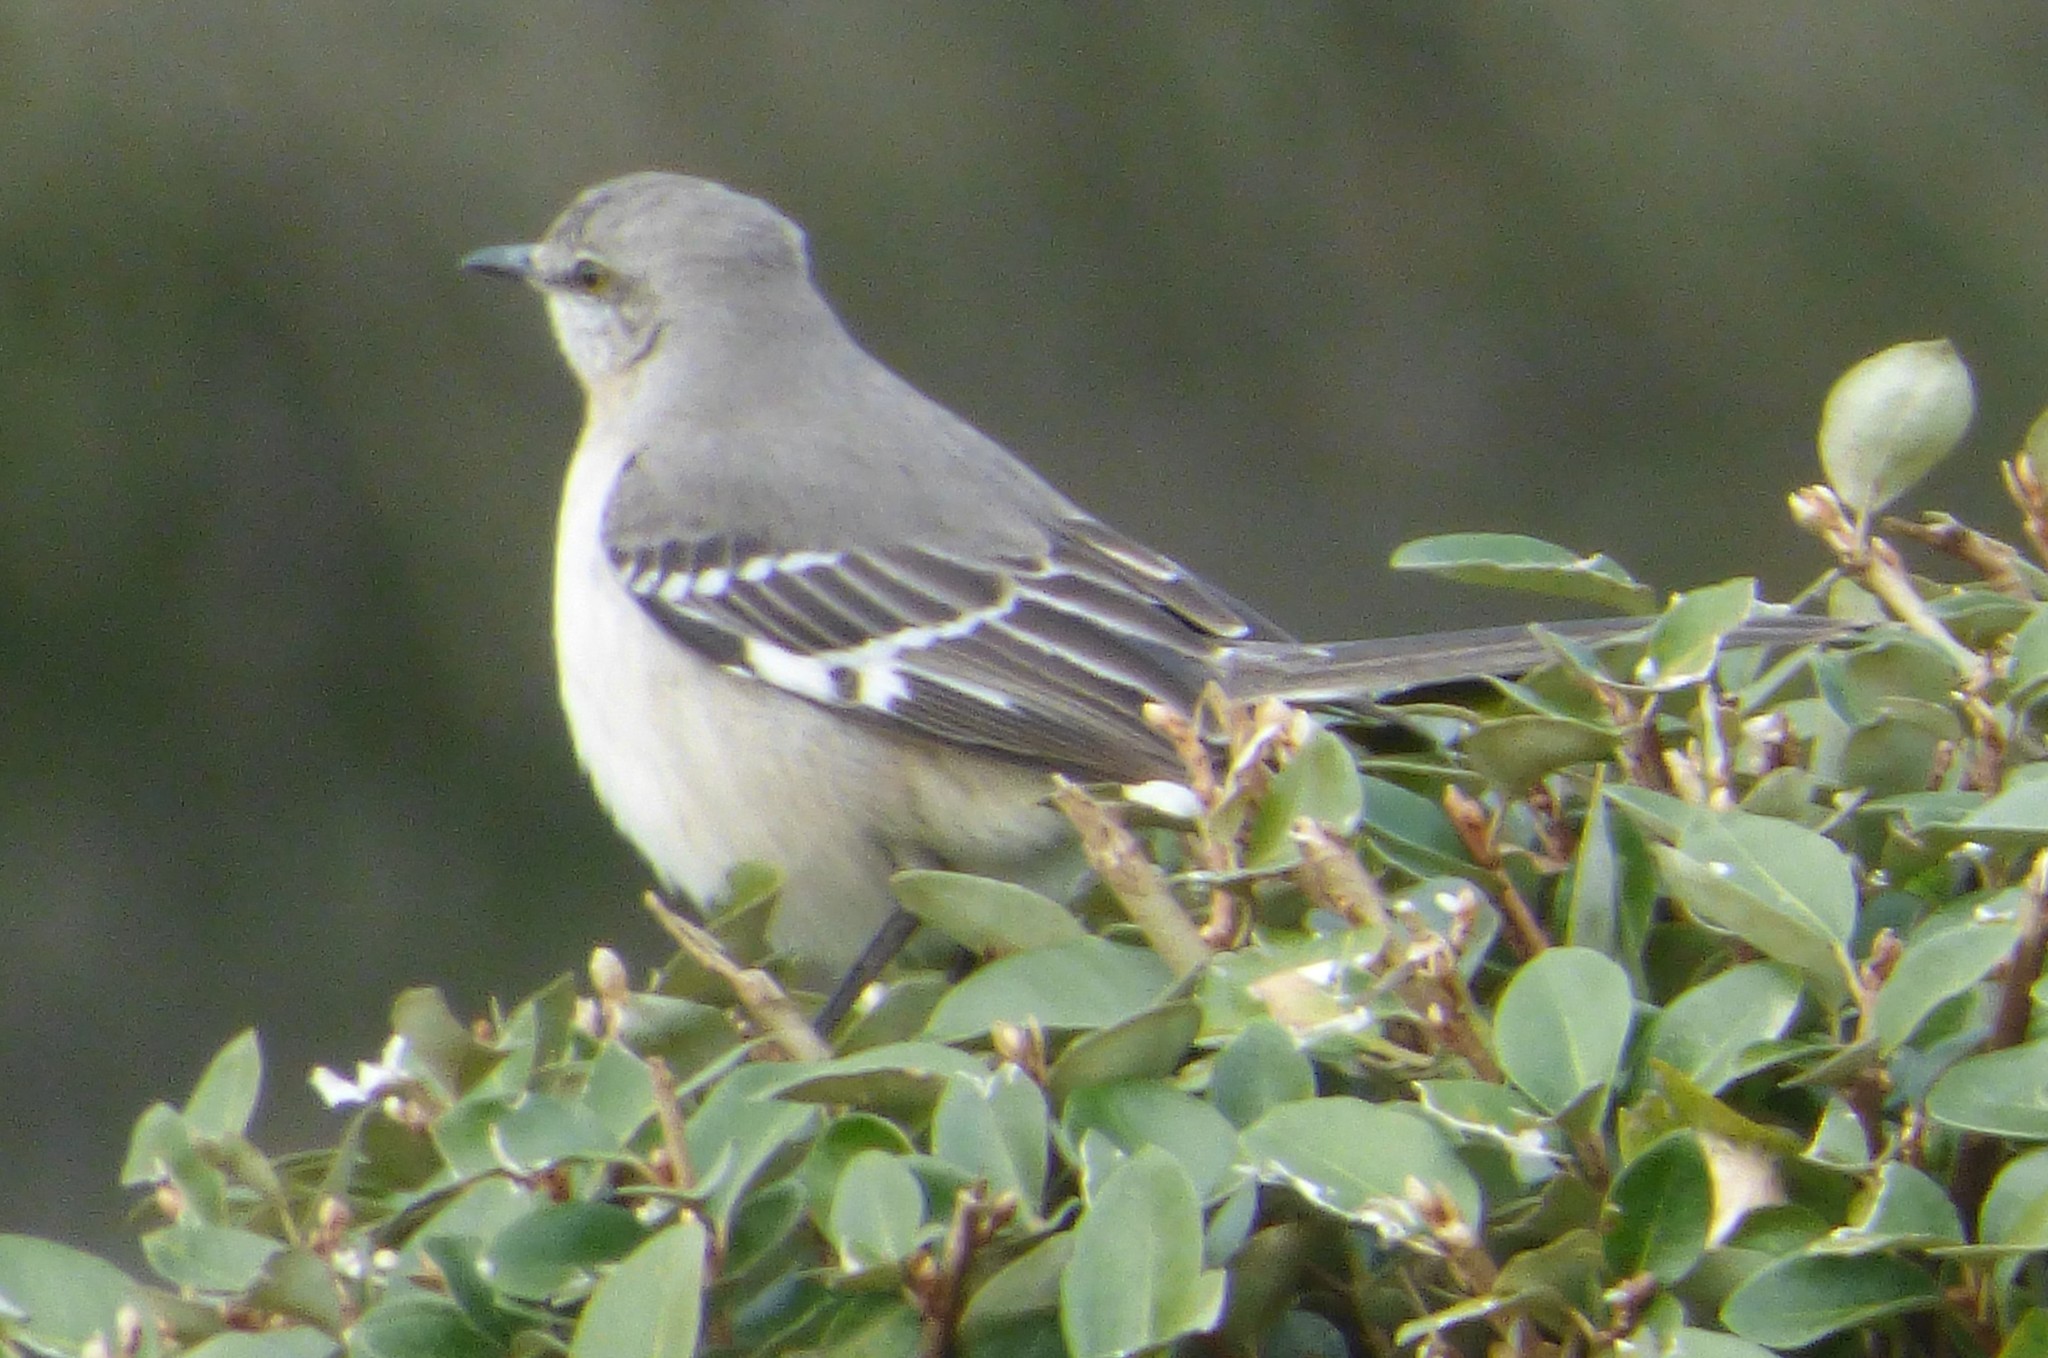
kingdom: Animalia
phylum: Chordata
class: Aves
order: Passeriformes
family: Mimidae
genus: Mimus
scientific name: Mimus polyglottos
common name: Northern mockingbird
